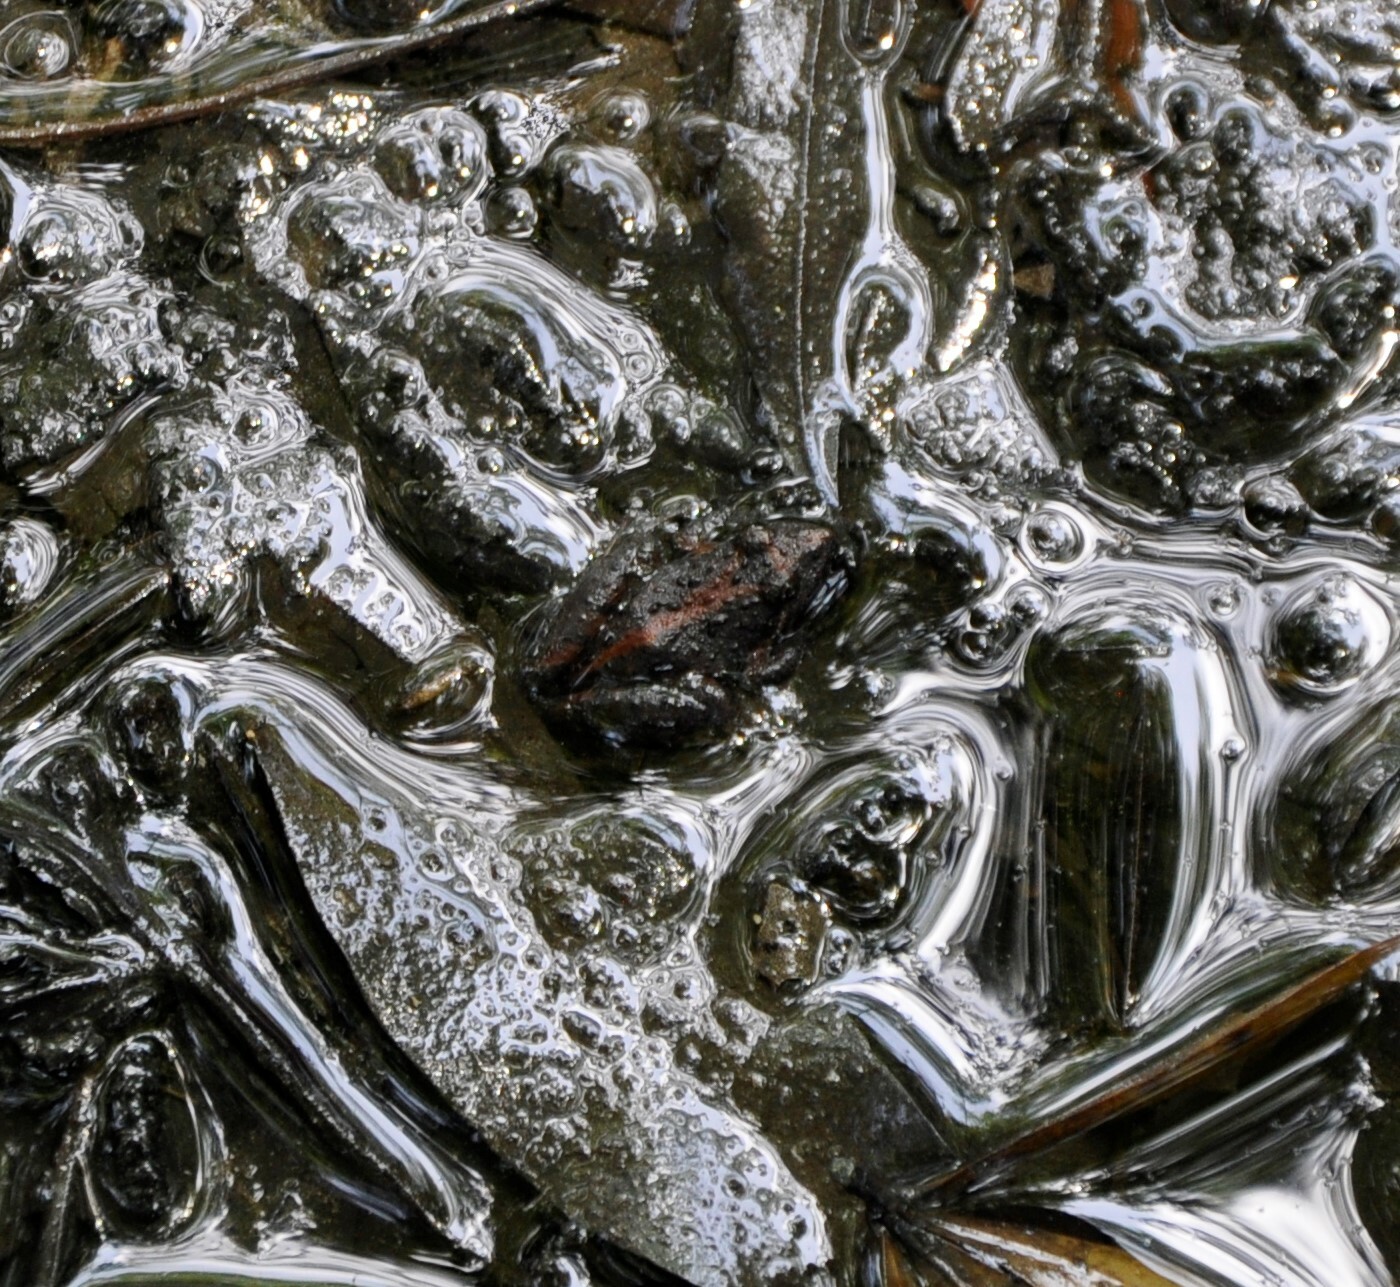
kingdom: Animalia
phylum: Chordata
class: Amphibia
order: Anura
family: Hylidae
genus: Acris
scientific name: Acris gryllus
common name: Southern cricket frog
